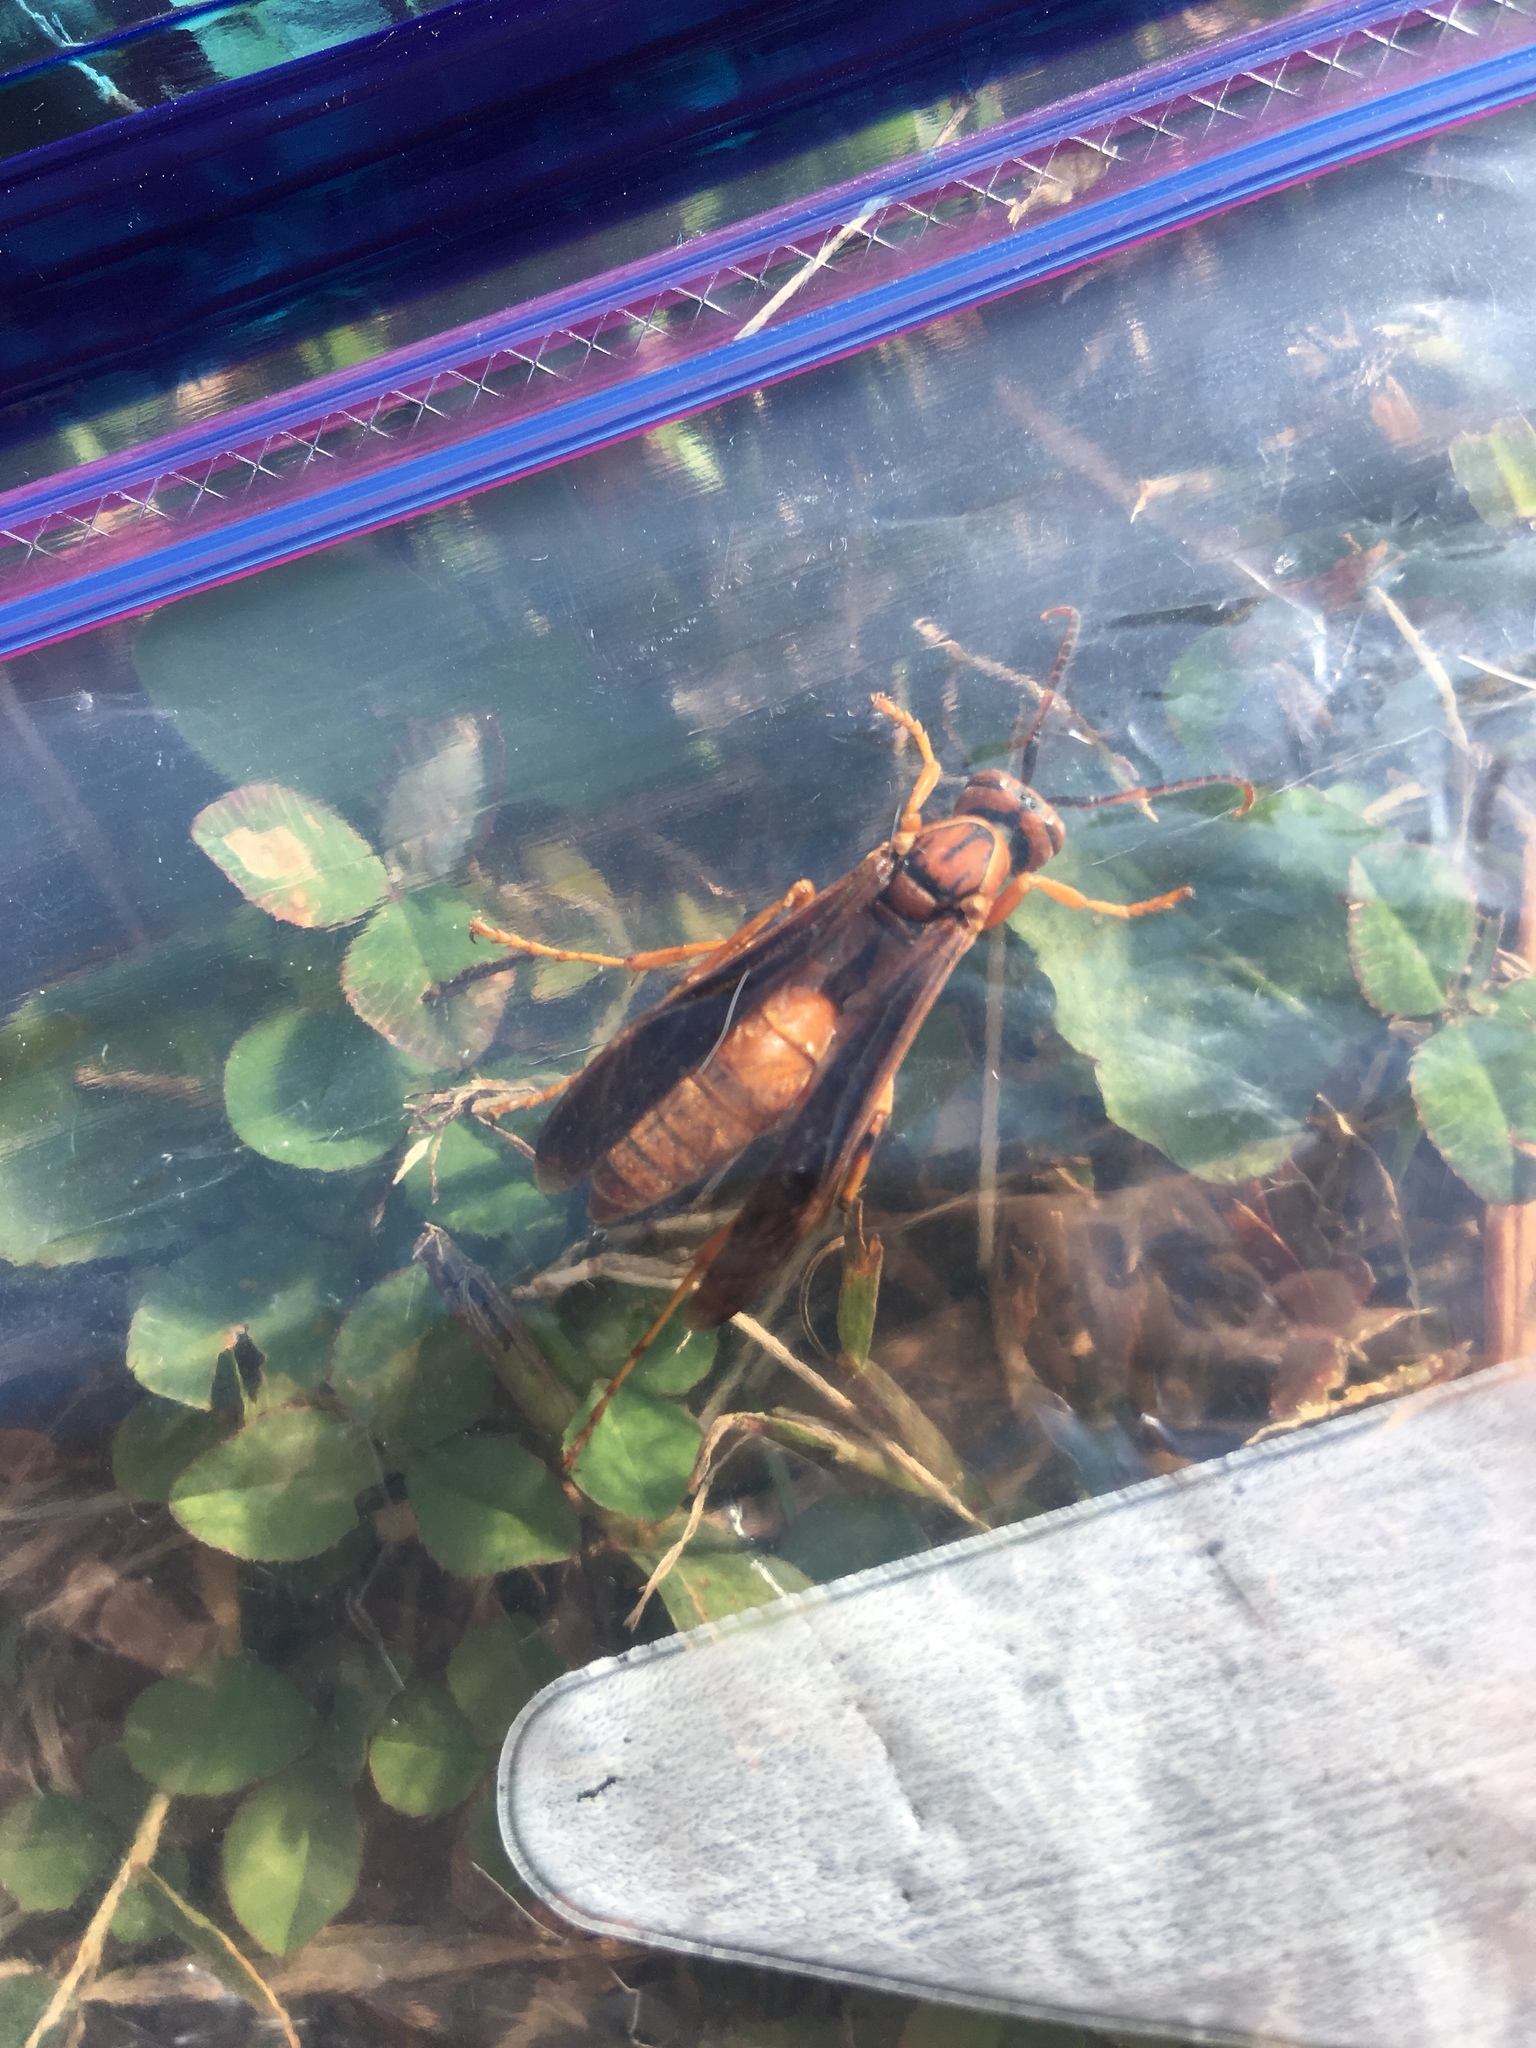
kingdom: Animalia
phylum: Arthropoda
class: Insecta
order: Hymenoptera
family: Eumenidae
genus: Polistes
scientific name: Polistes carolina
